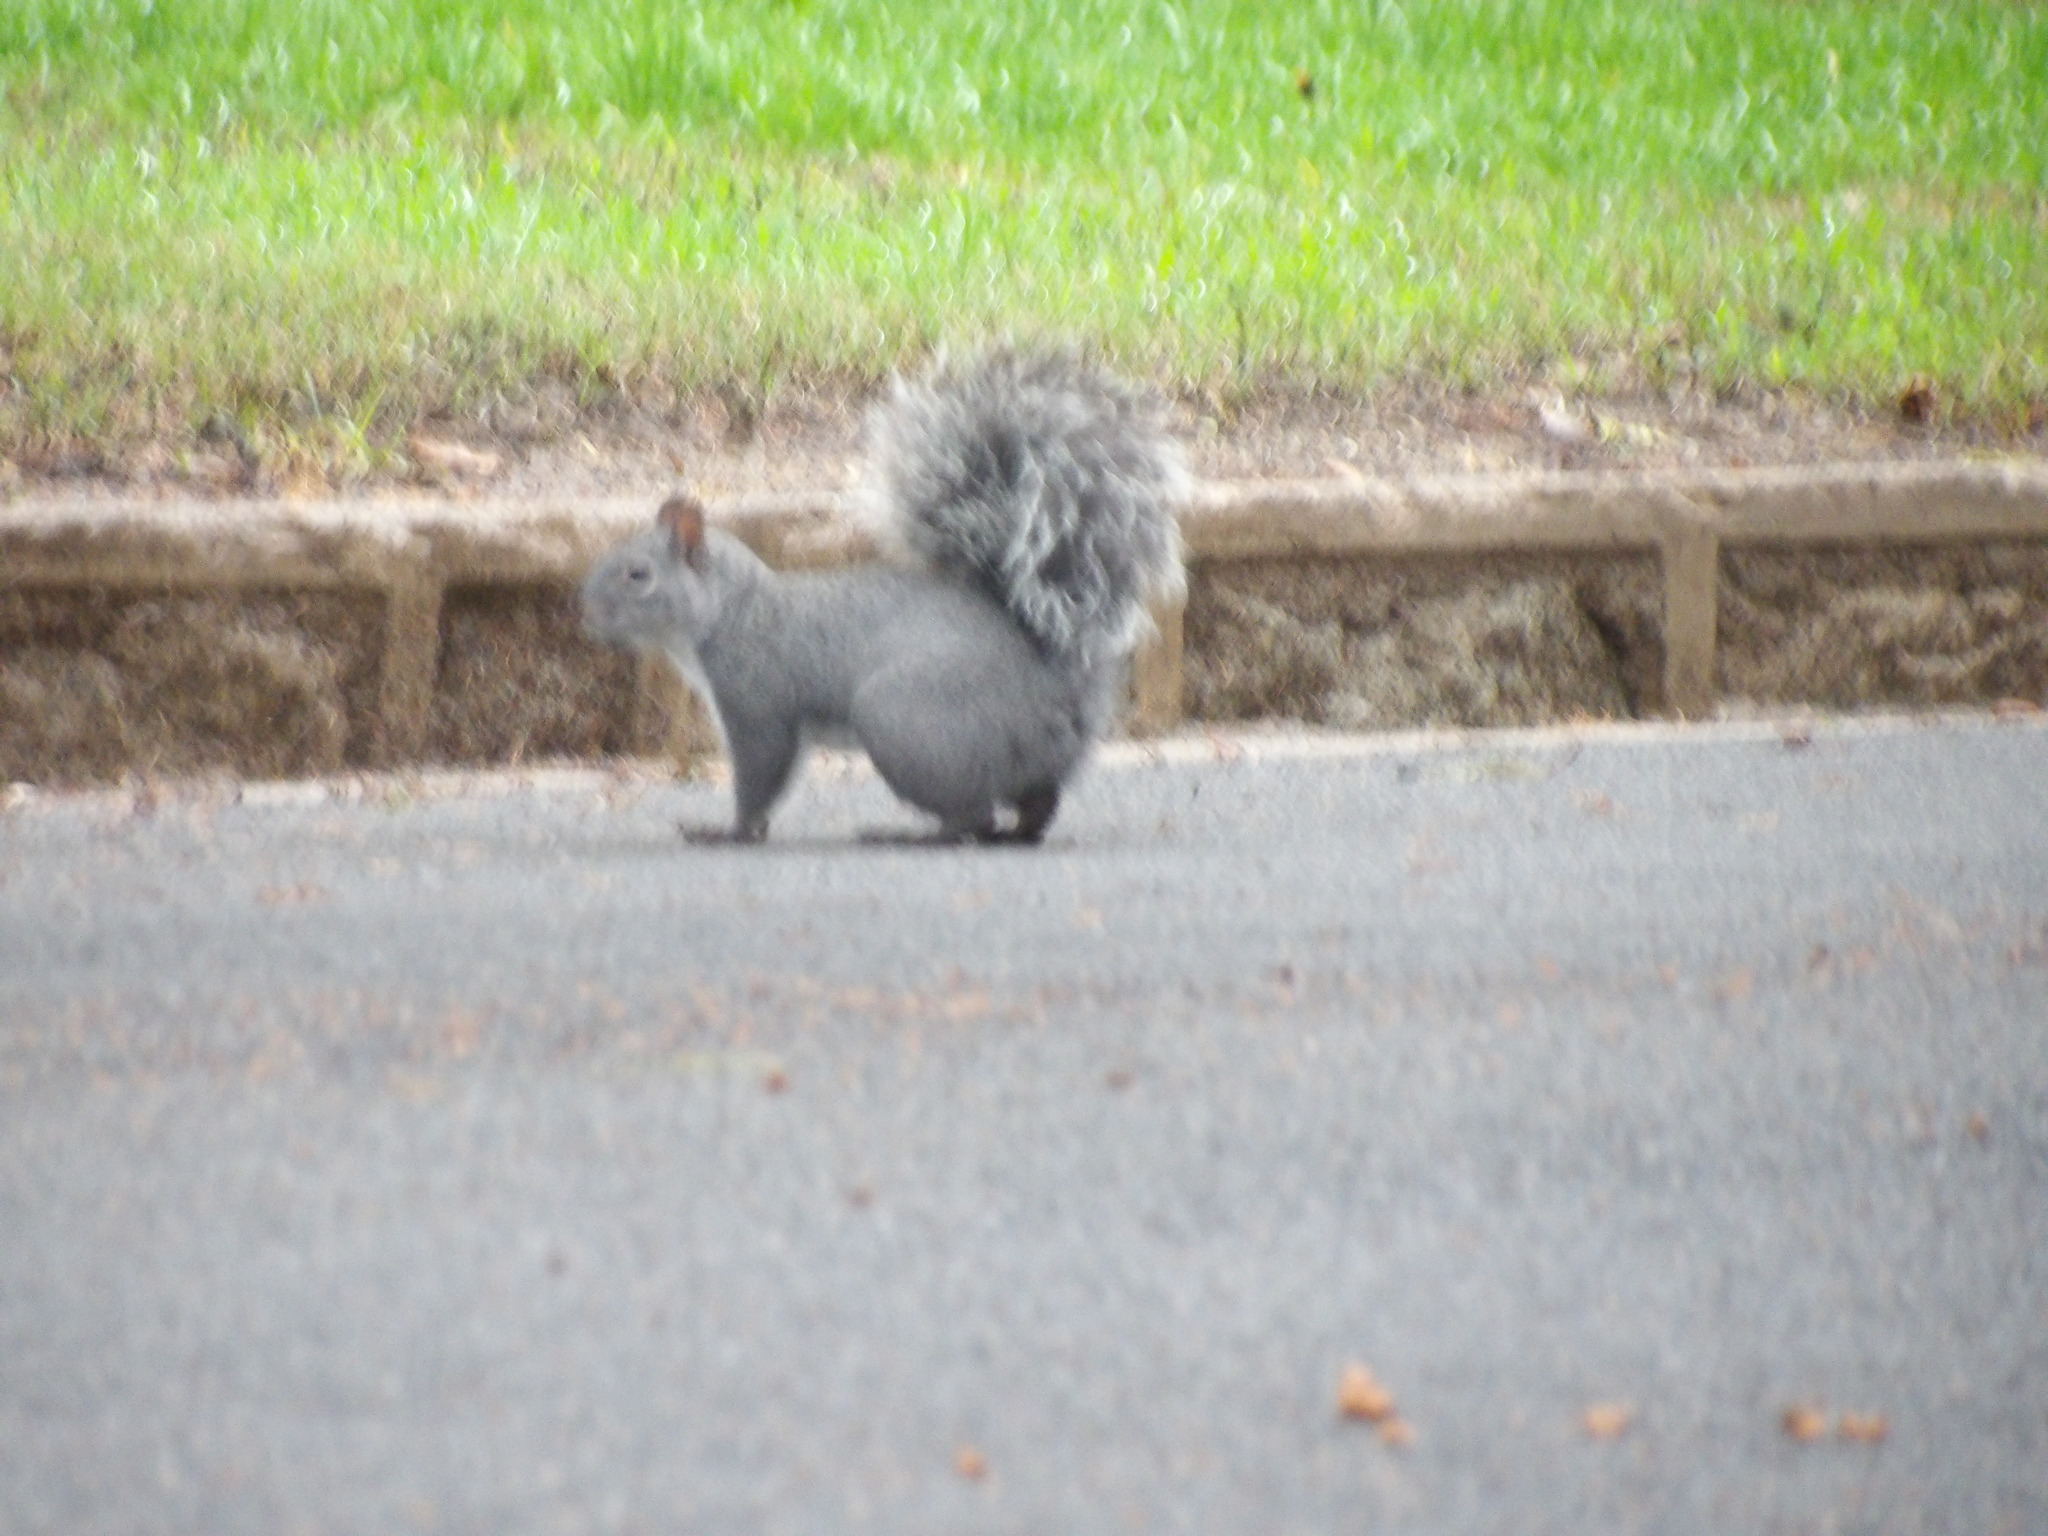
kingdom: Animalia
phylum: Chordata
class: Mammalia
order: Rodentia
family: Sciuridae
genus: Sciurus
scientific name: Sciurus griseus
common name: Western gray squirrel
